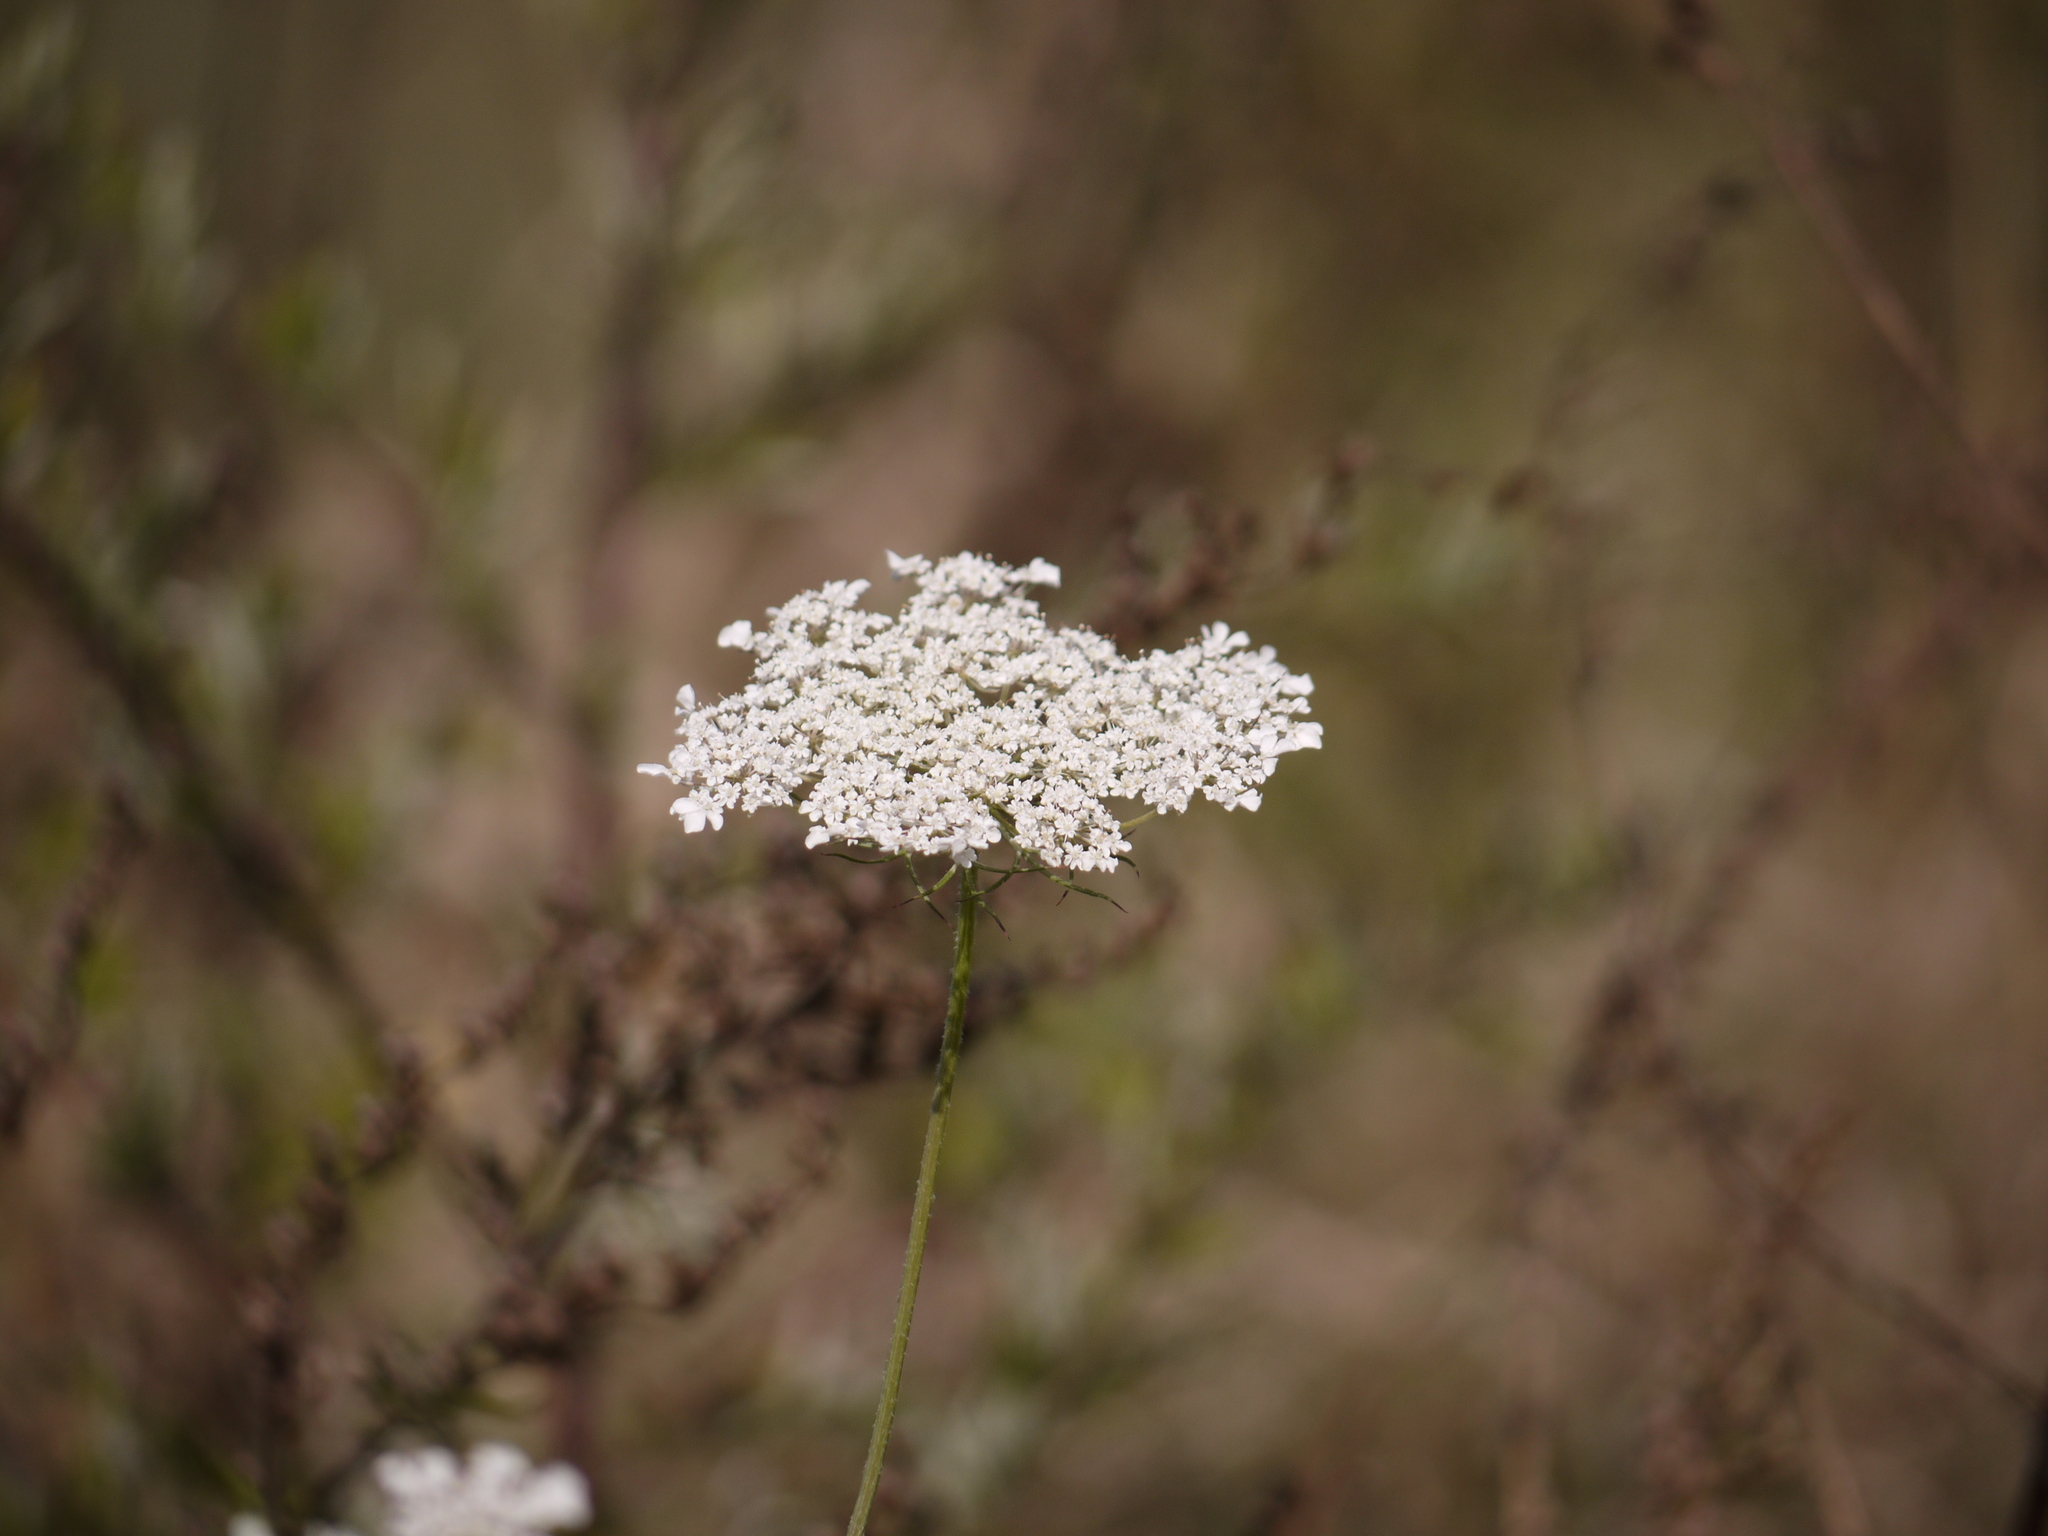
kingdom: Plantae
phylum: Tracheophyta
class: Magnoliopsida
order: Apiales
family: Apiaceae
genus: Daucus
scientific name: Daucus carota
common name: Wild carrot
